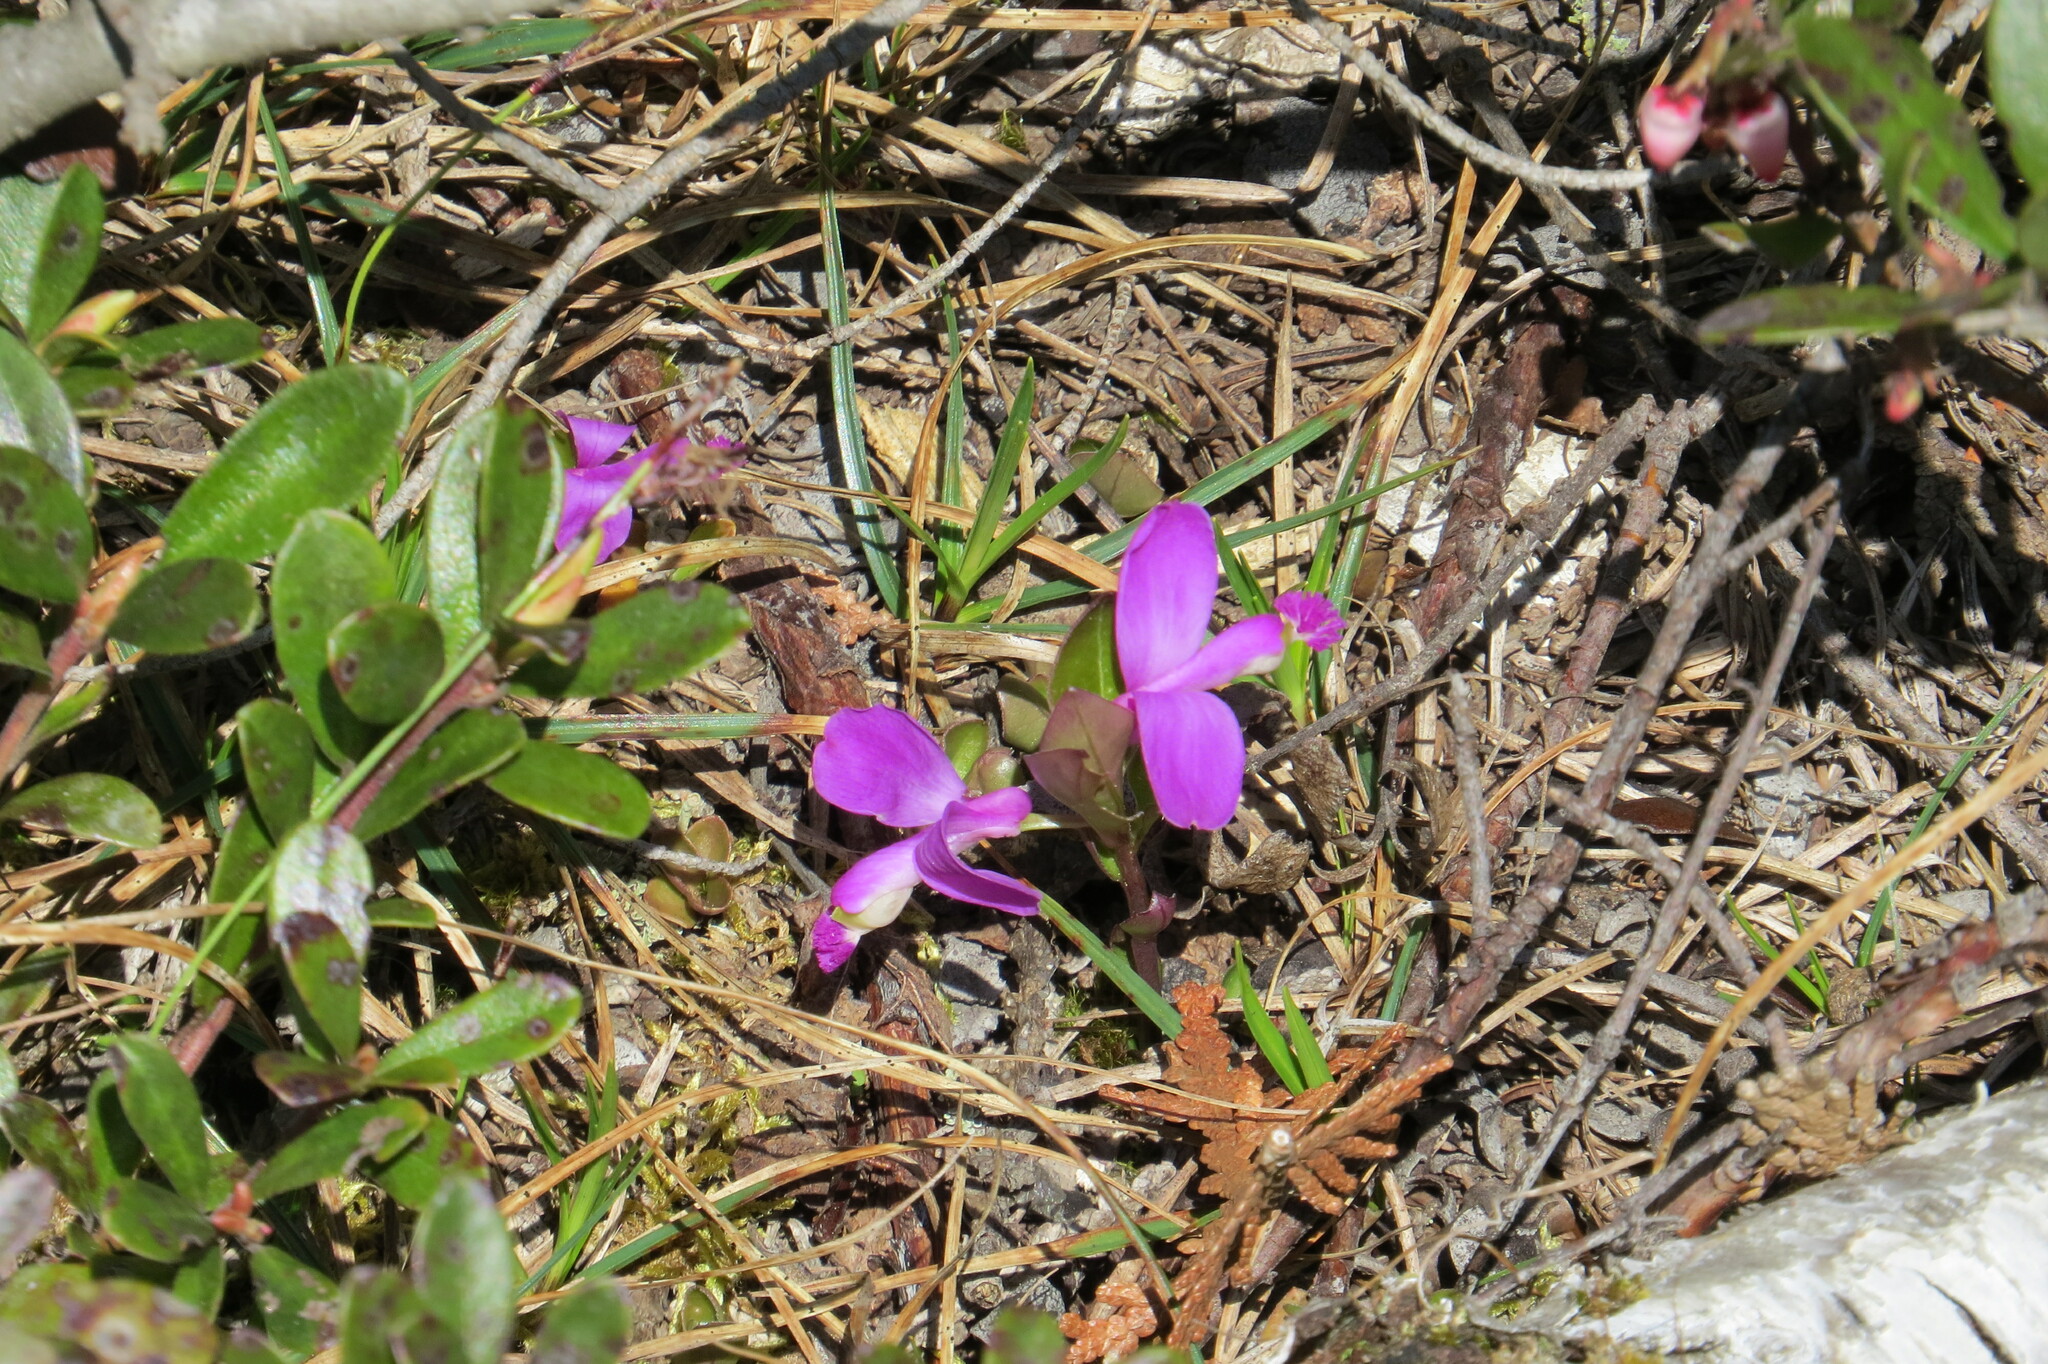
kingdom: Plantae
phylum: Tracheophyta
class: Magnoliopsida
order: Fabales
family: Polygalaceae
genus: Polygaloides
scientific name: Polygaloides paucifolia
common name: Bird-on-the-wing
